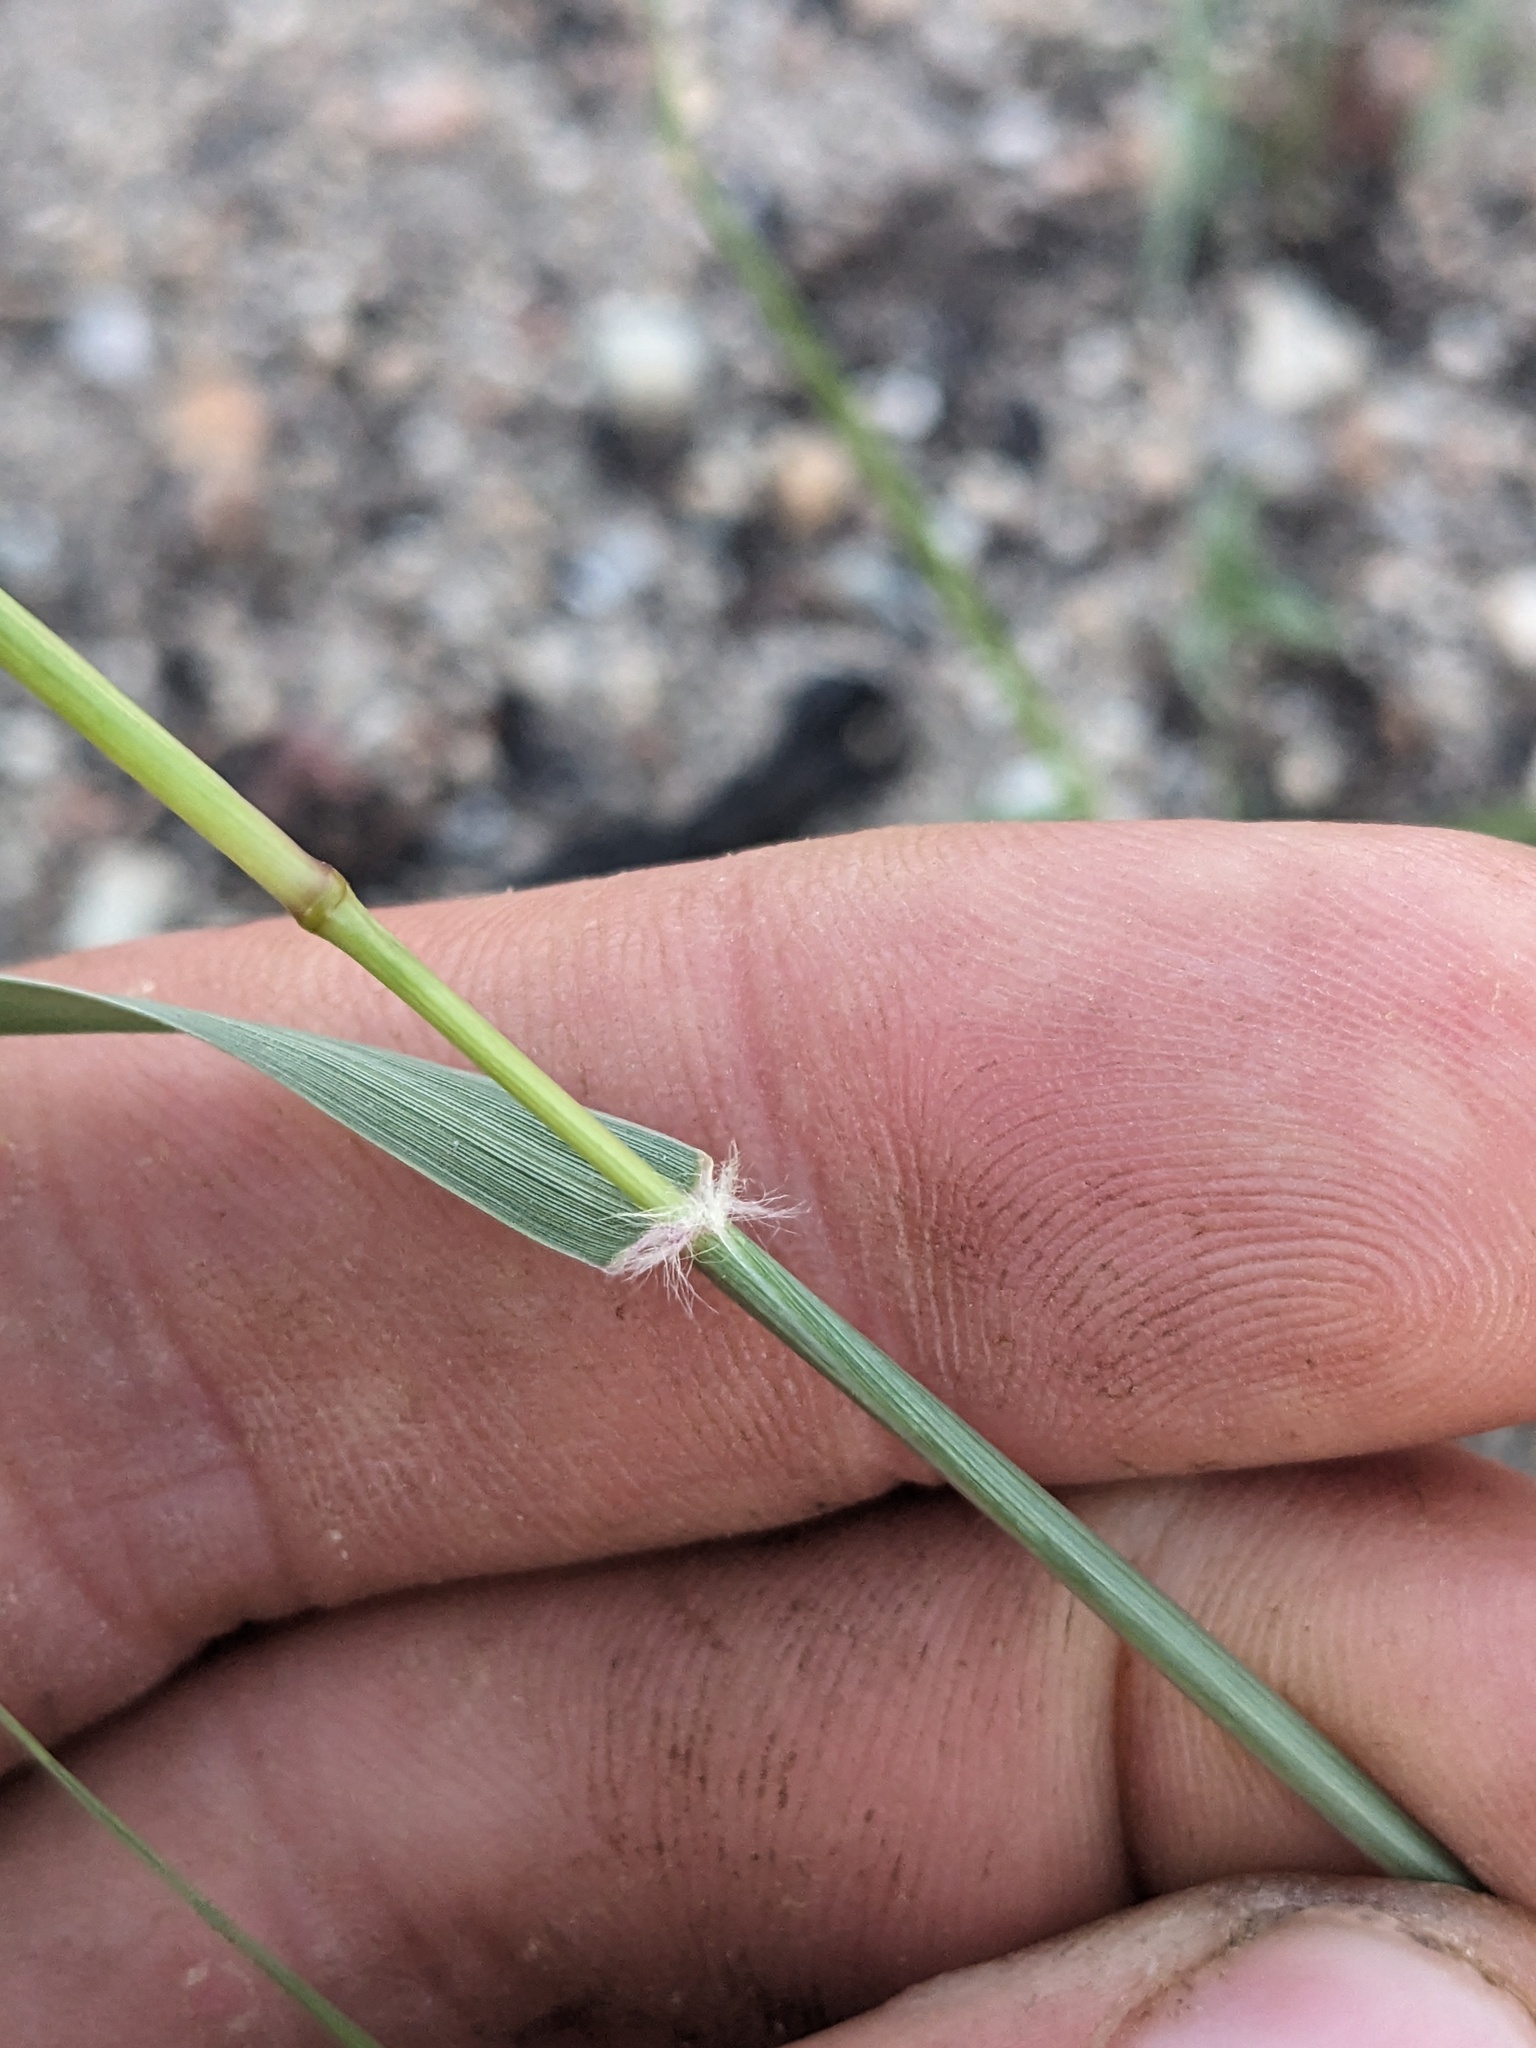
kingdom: Plantae
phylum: Tracheophyta
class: Liliopsida
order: Poales
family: Poaceae
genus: Sporobolus
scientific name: Sporobolus contractus
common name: Spike dropseed
